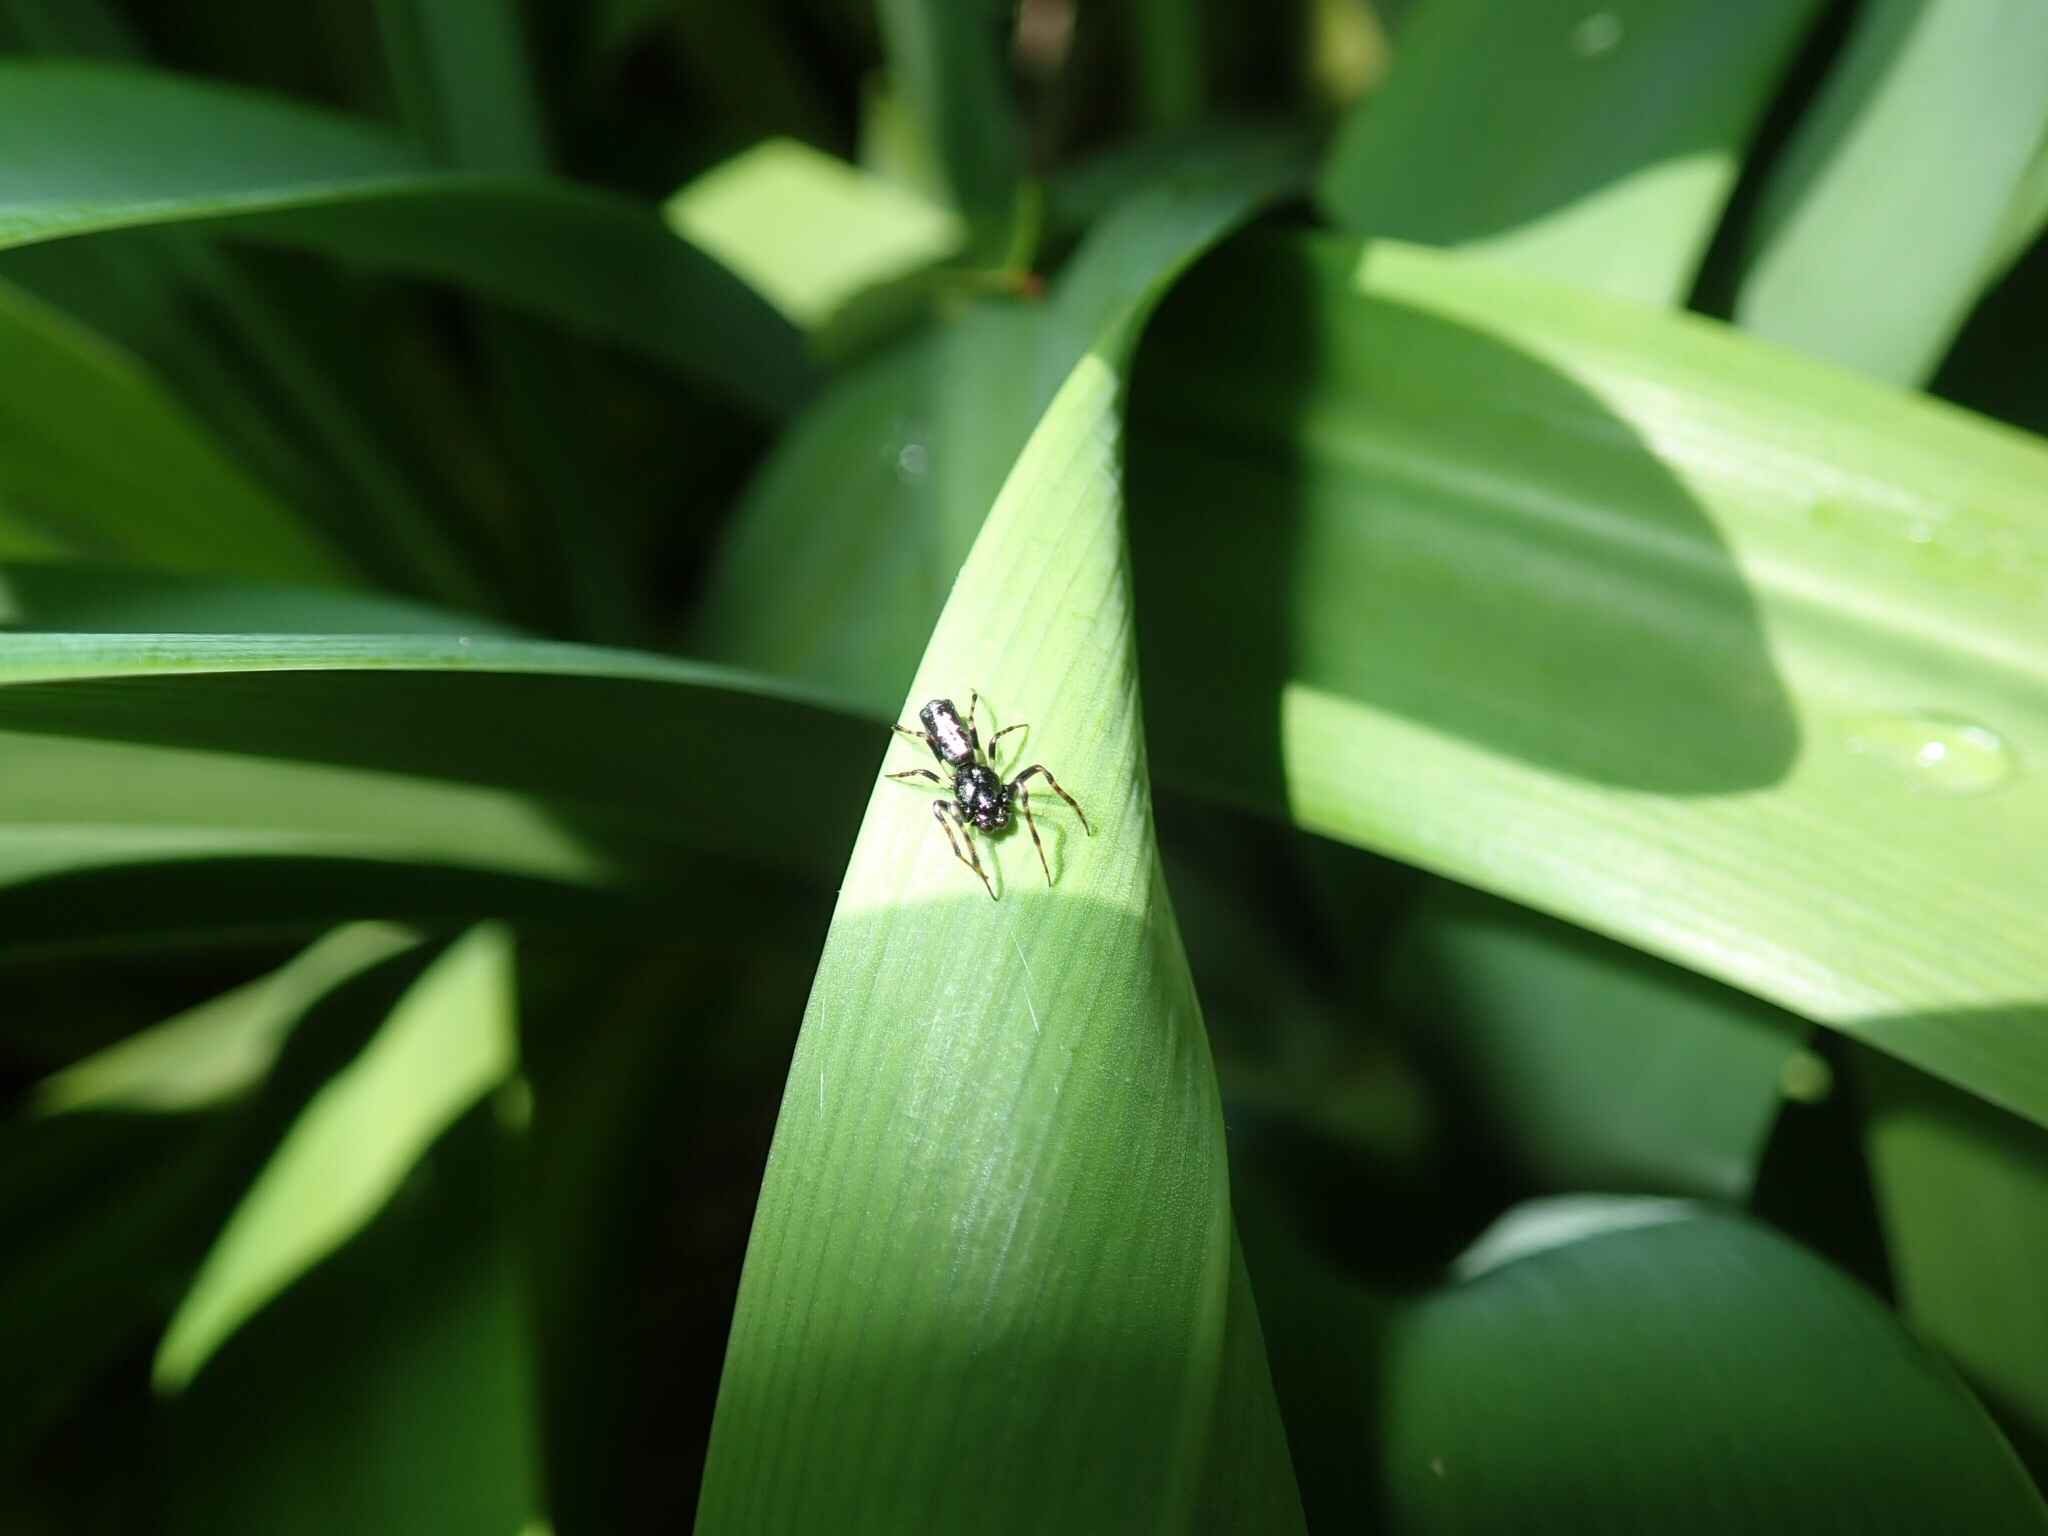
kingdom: Animalia
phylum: Arthropoda
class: Arachnida
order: Araneae
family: Araneidae
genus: Cyclosa
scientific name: Cyclosa trilobata
